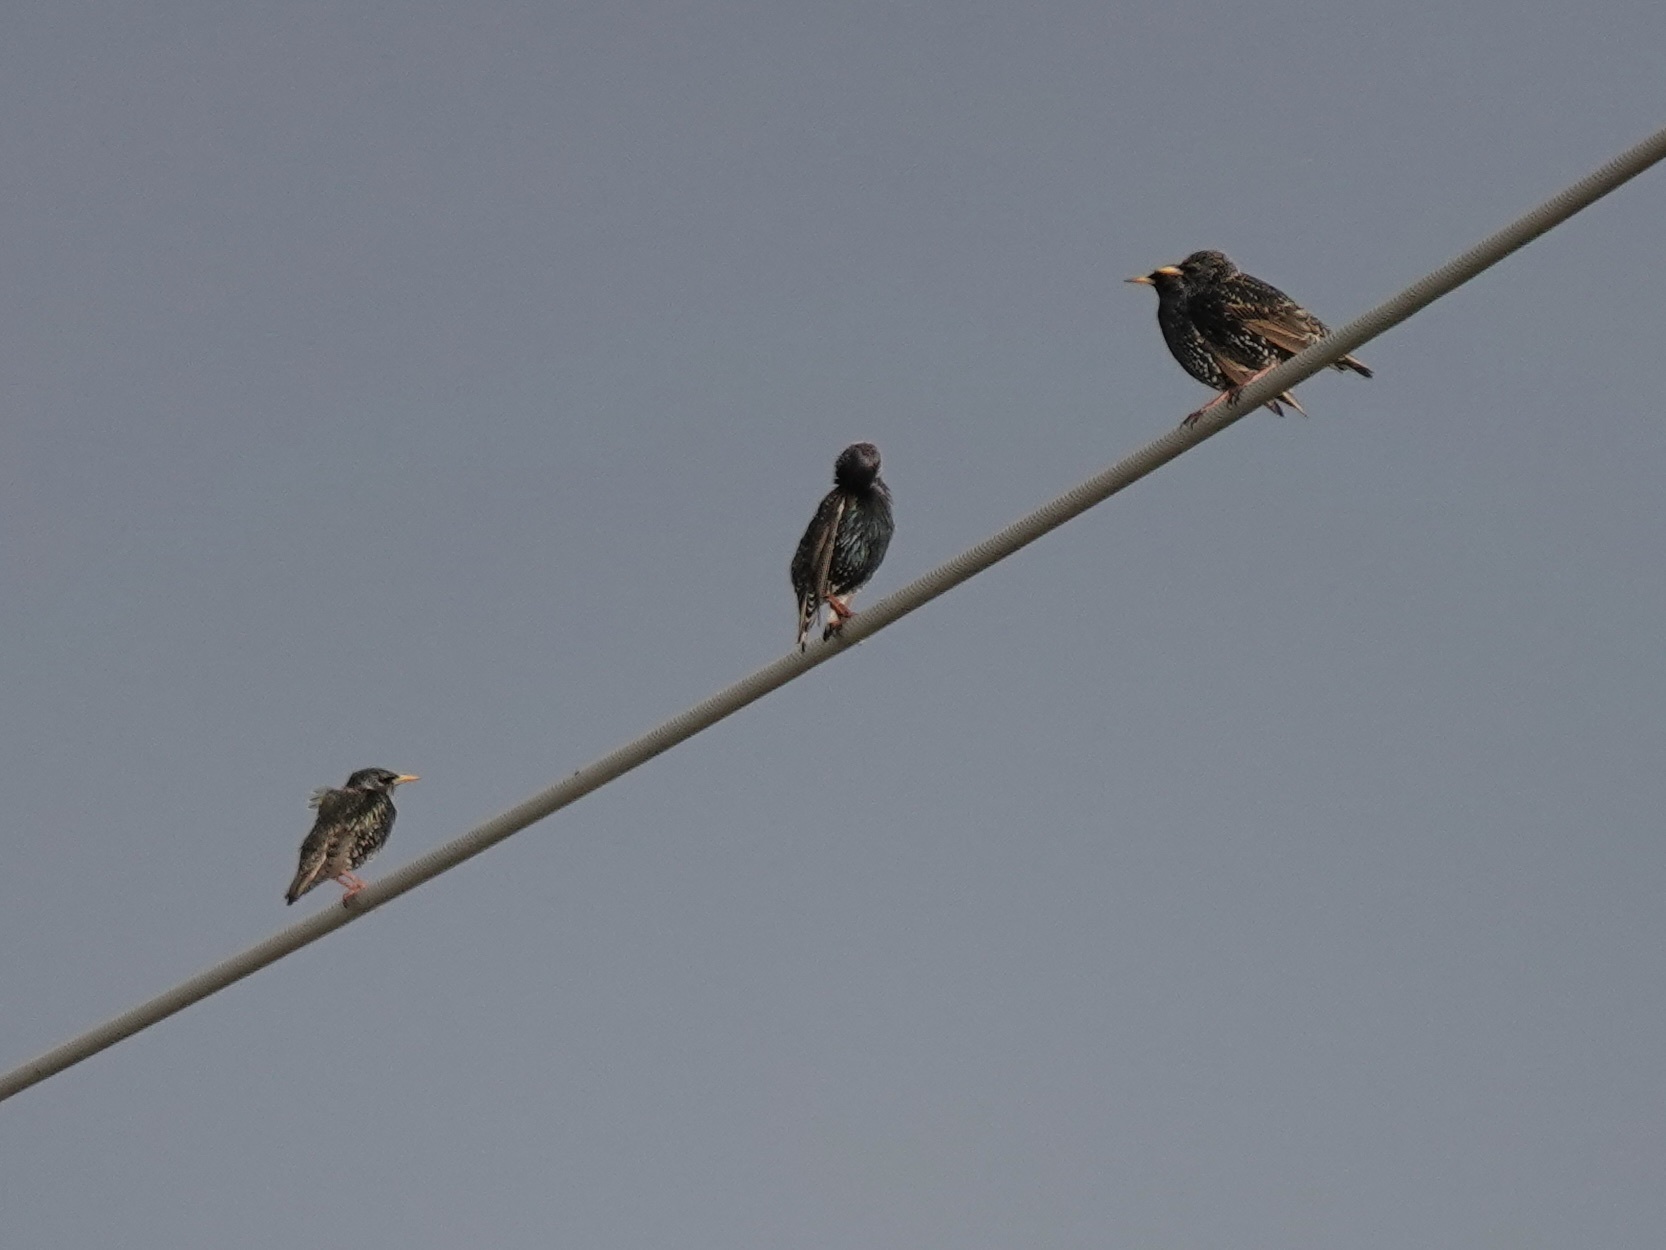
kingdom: Animalia
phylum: Chordata
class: Aves
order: Passeriformes
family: Sturnidae
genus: Sturnus
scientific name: Sturnus vulgaris
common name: Common starling
